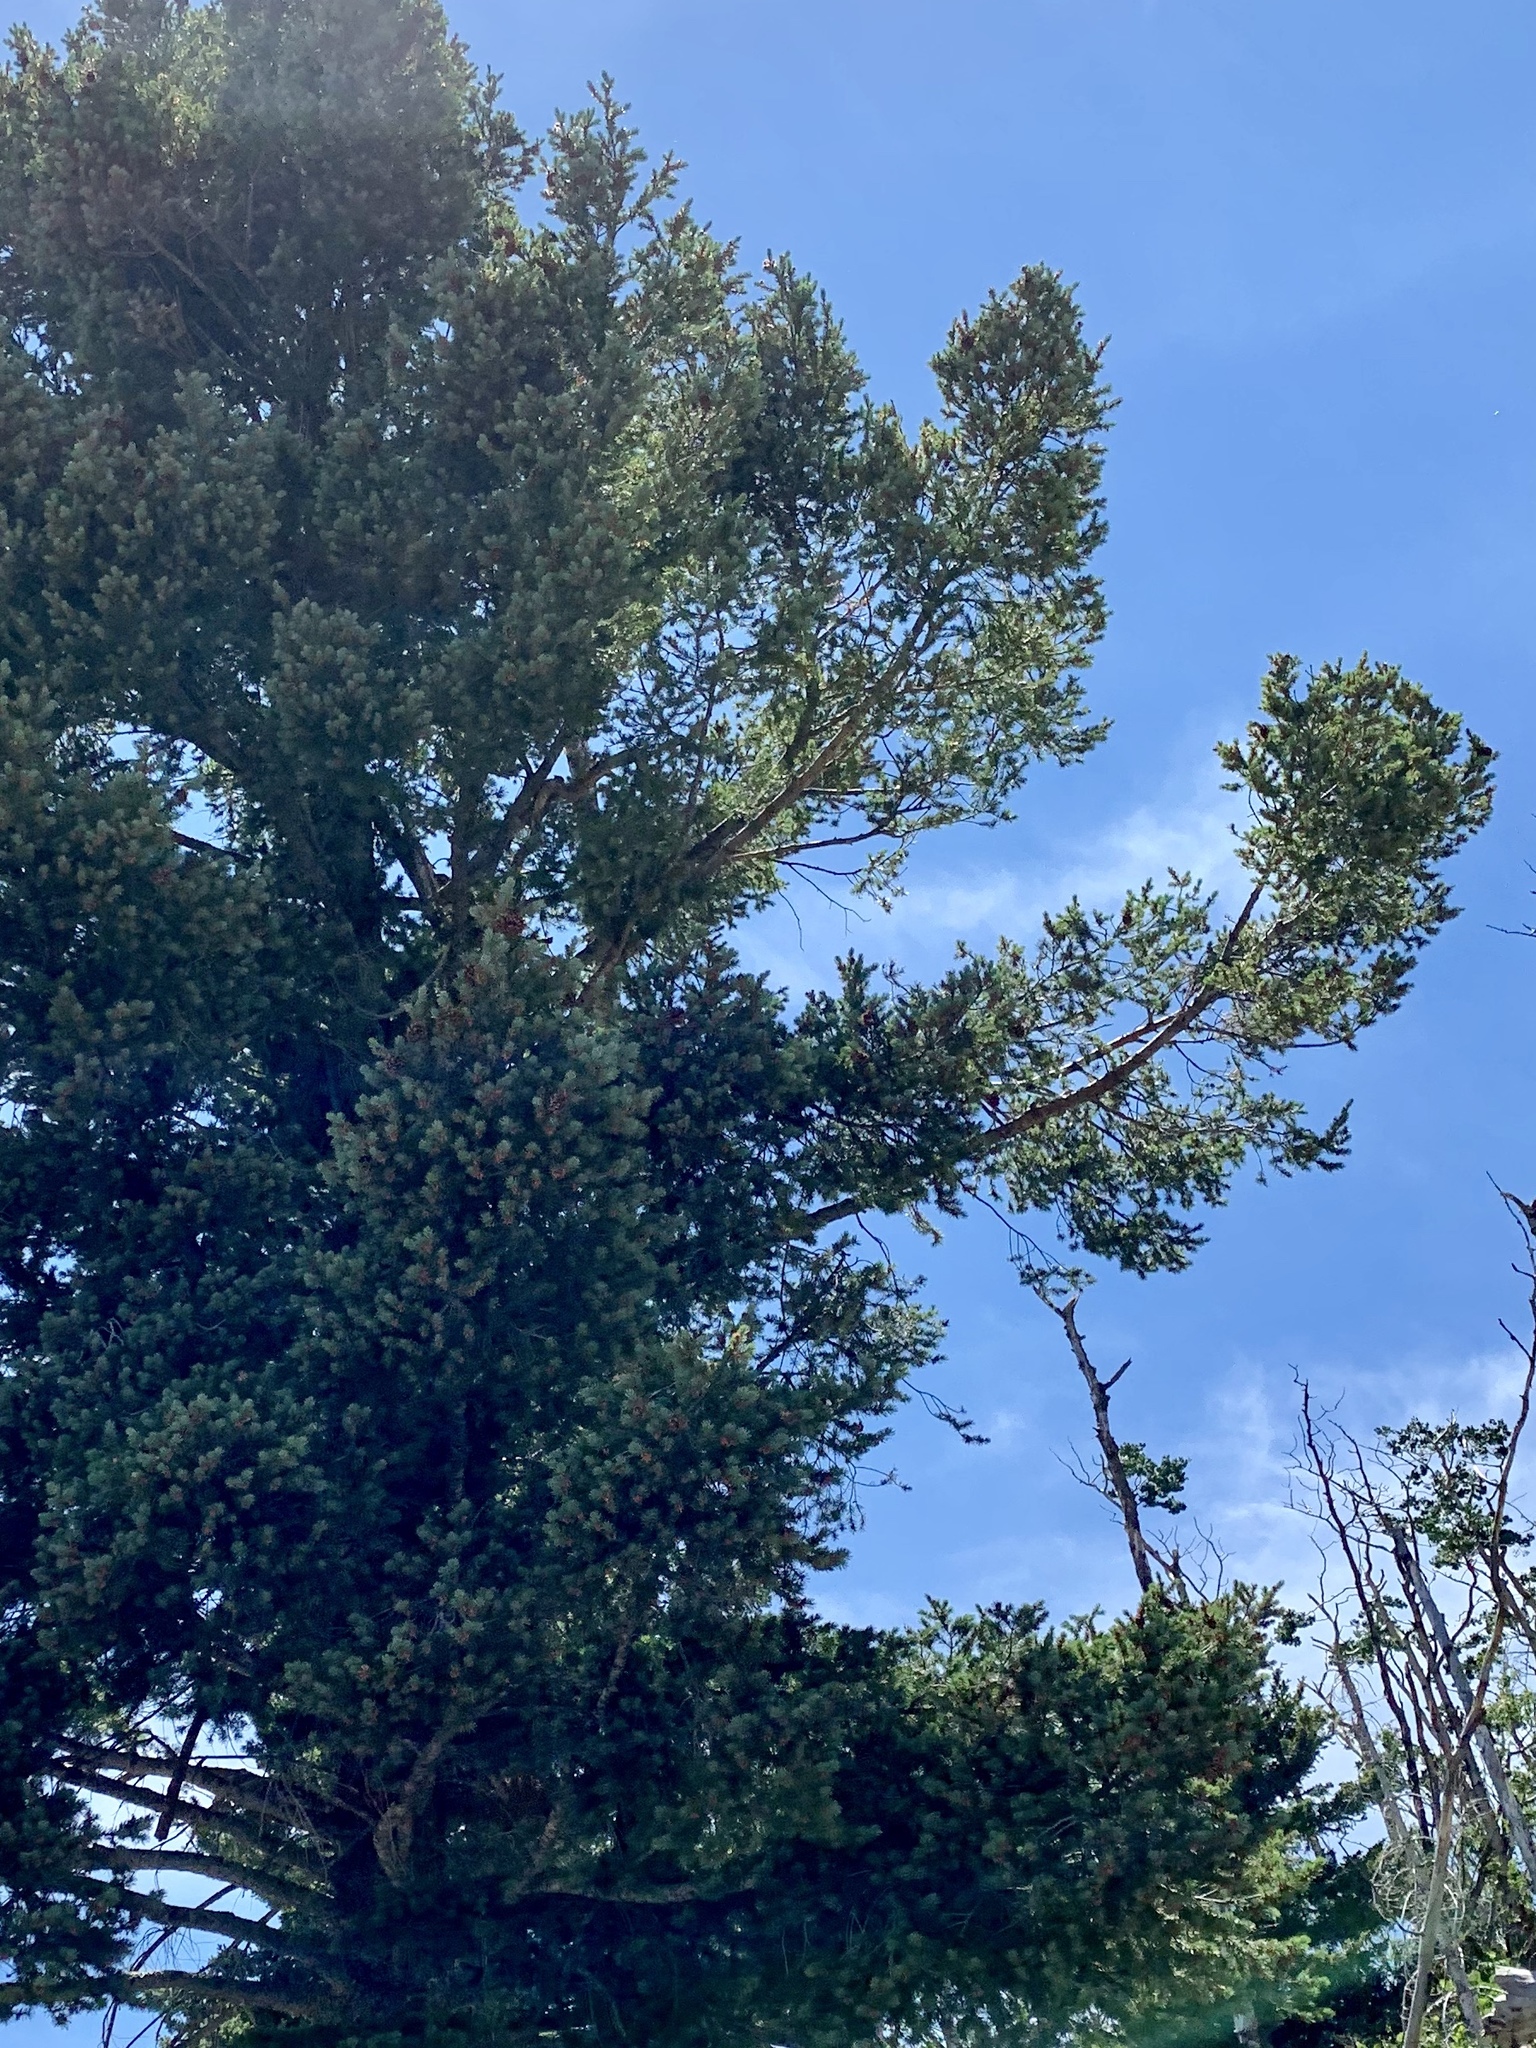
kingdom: Plantae
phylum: Tracheophyta
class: Pinopsida
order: Pinales
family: Pinaceae
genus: Pseudotsuga
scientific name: Pseudotsuga menziesii
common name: Douglas fir
